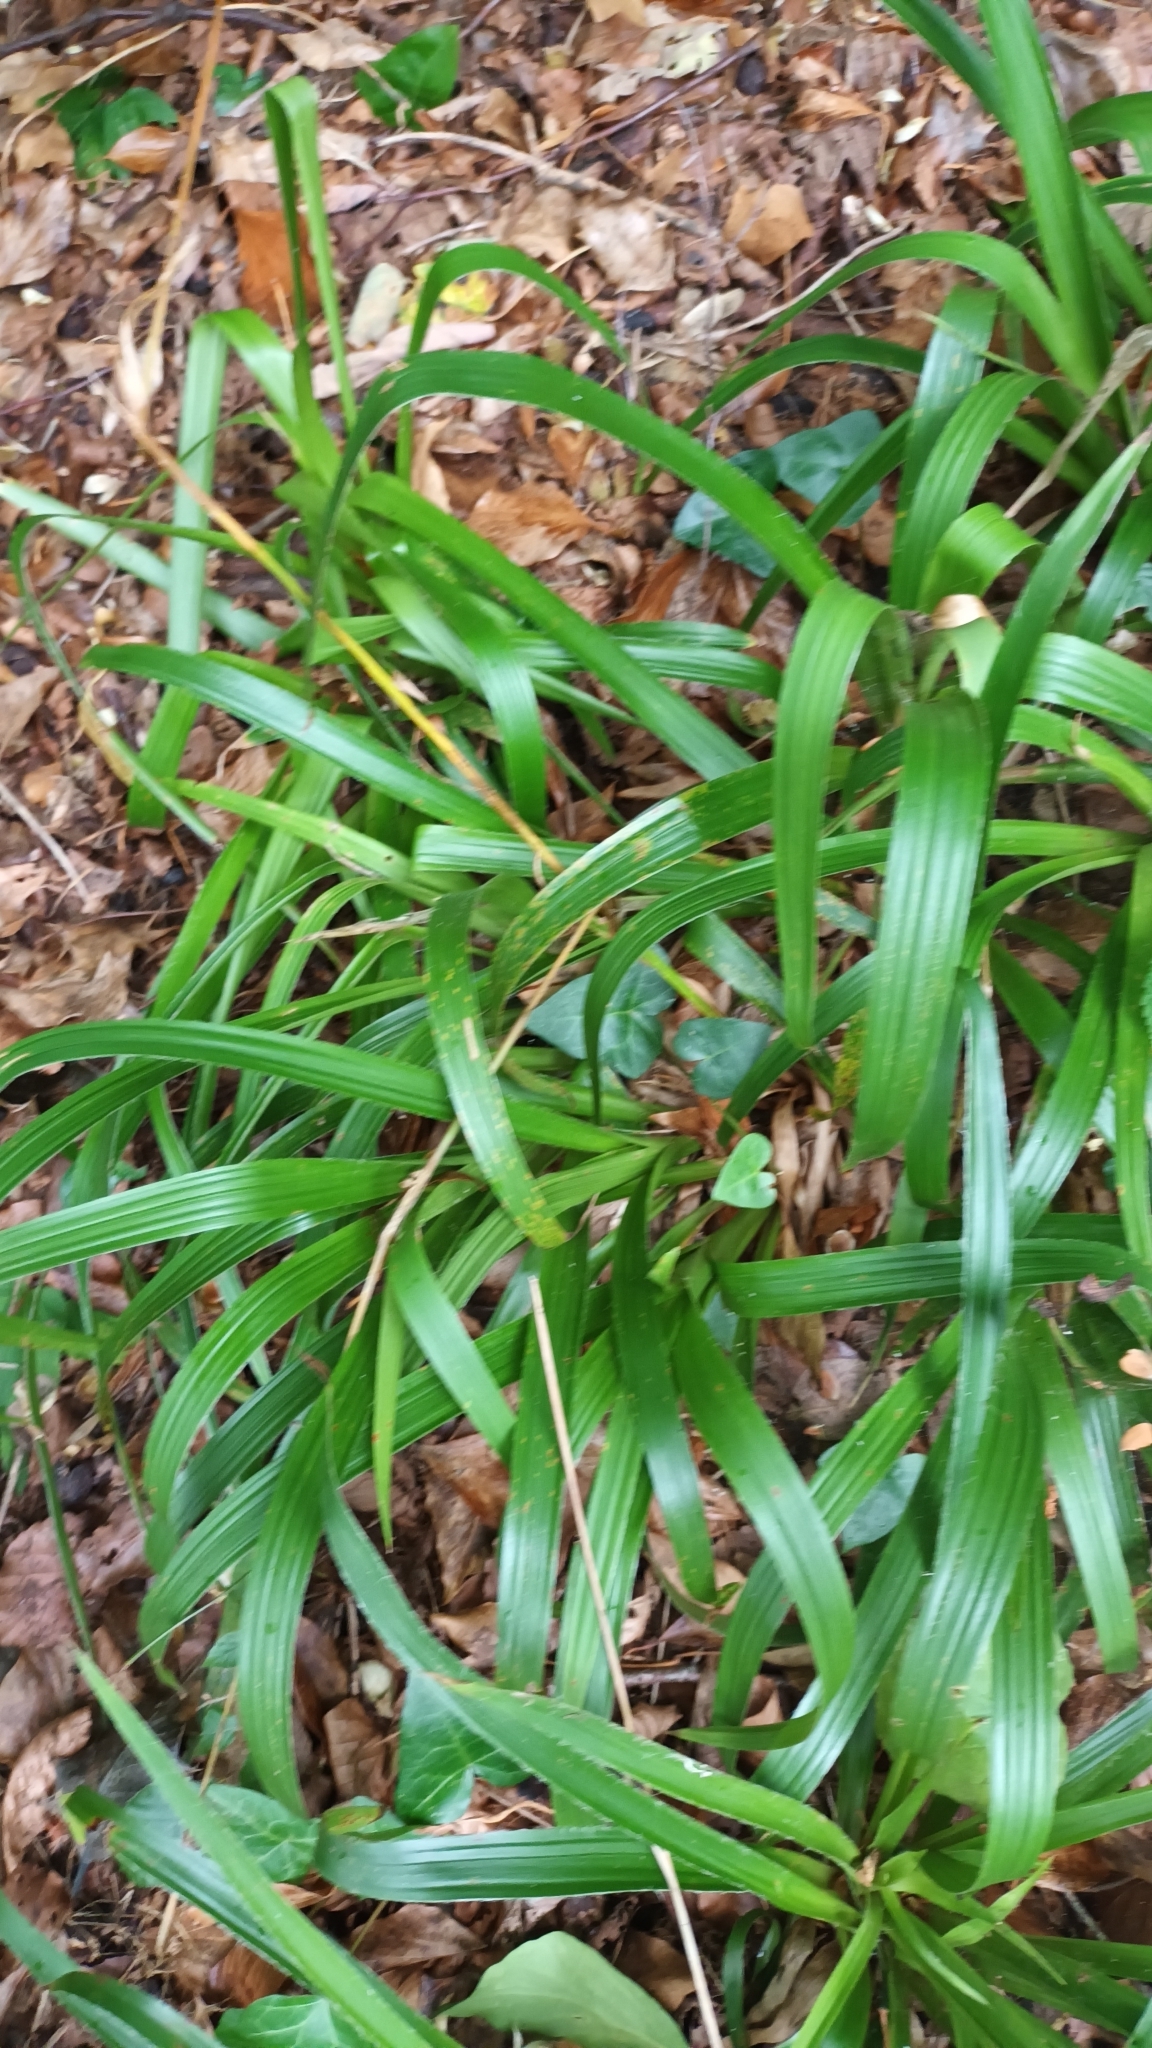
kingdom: Plantae
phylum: Tracheophyta
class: Liliopsida
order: Poales
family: Juncaceae
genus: Luzula
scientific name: Luzula sylvatica
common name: Great wood-rush
